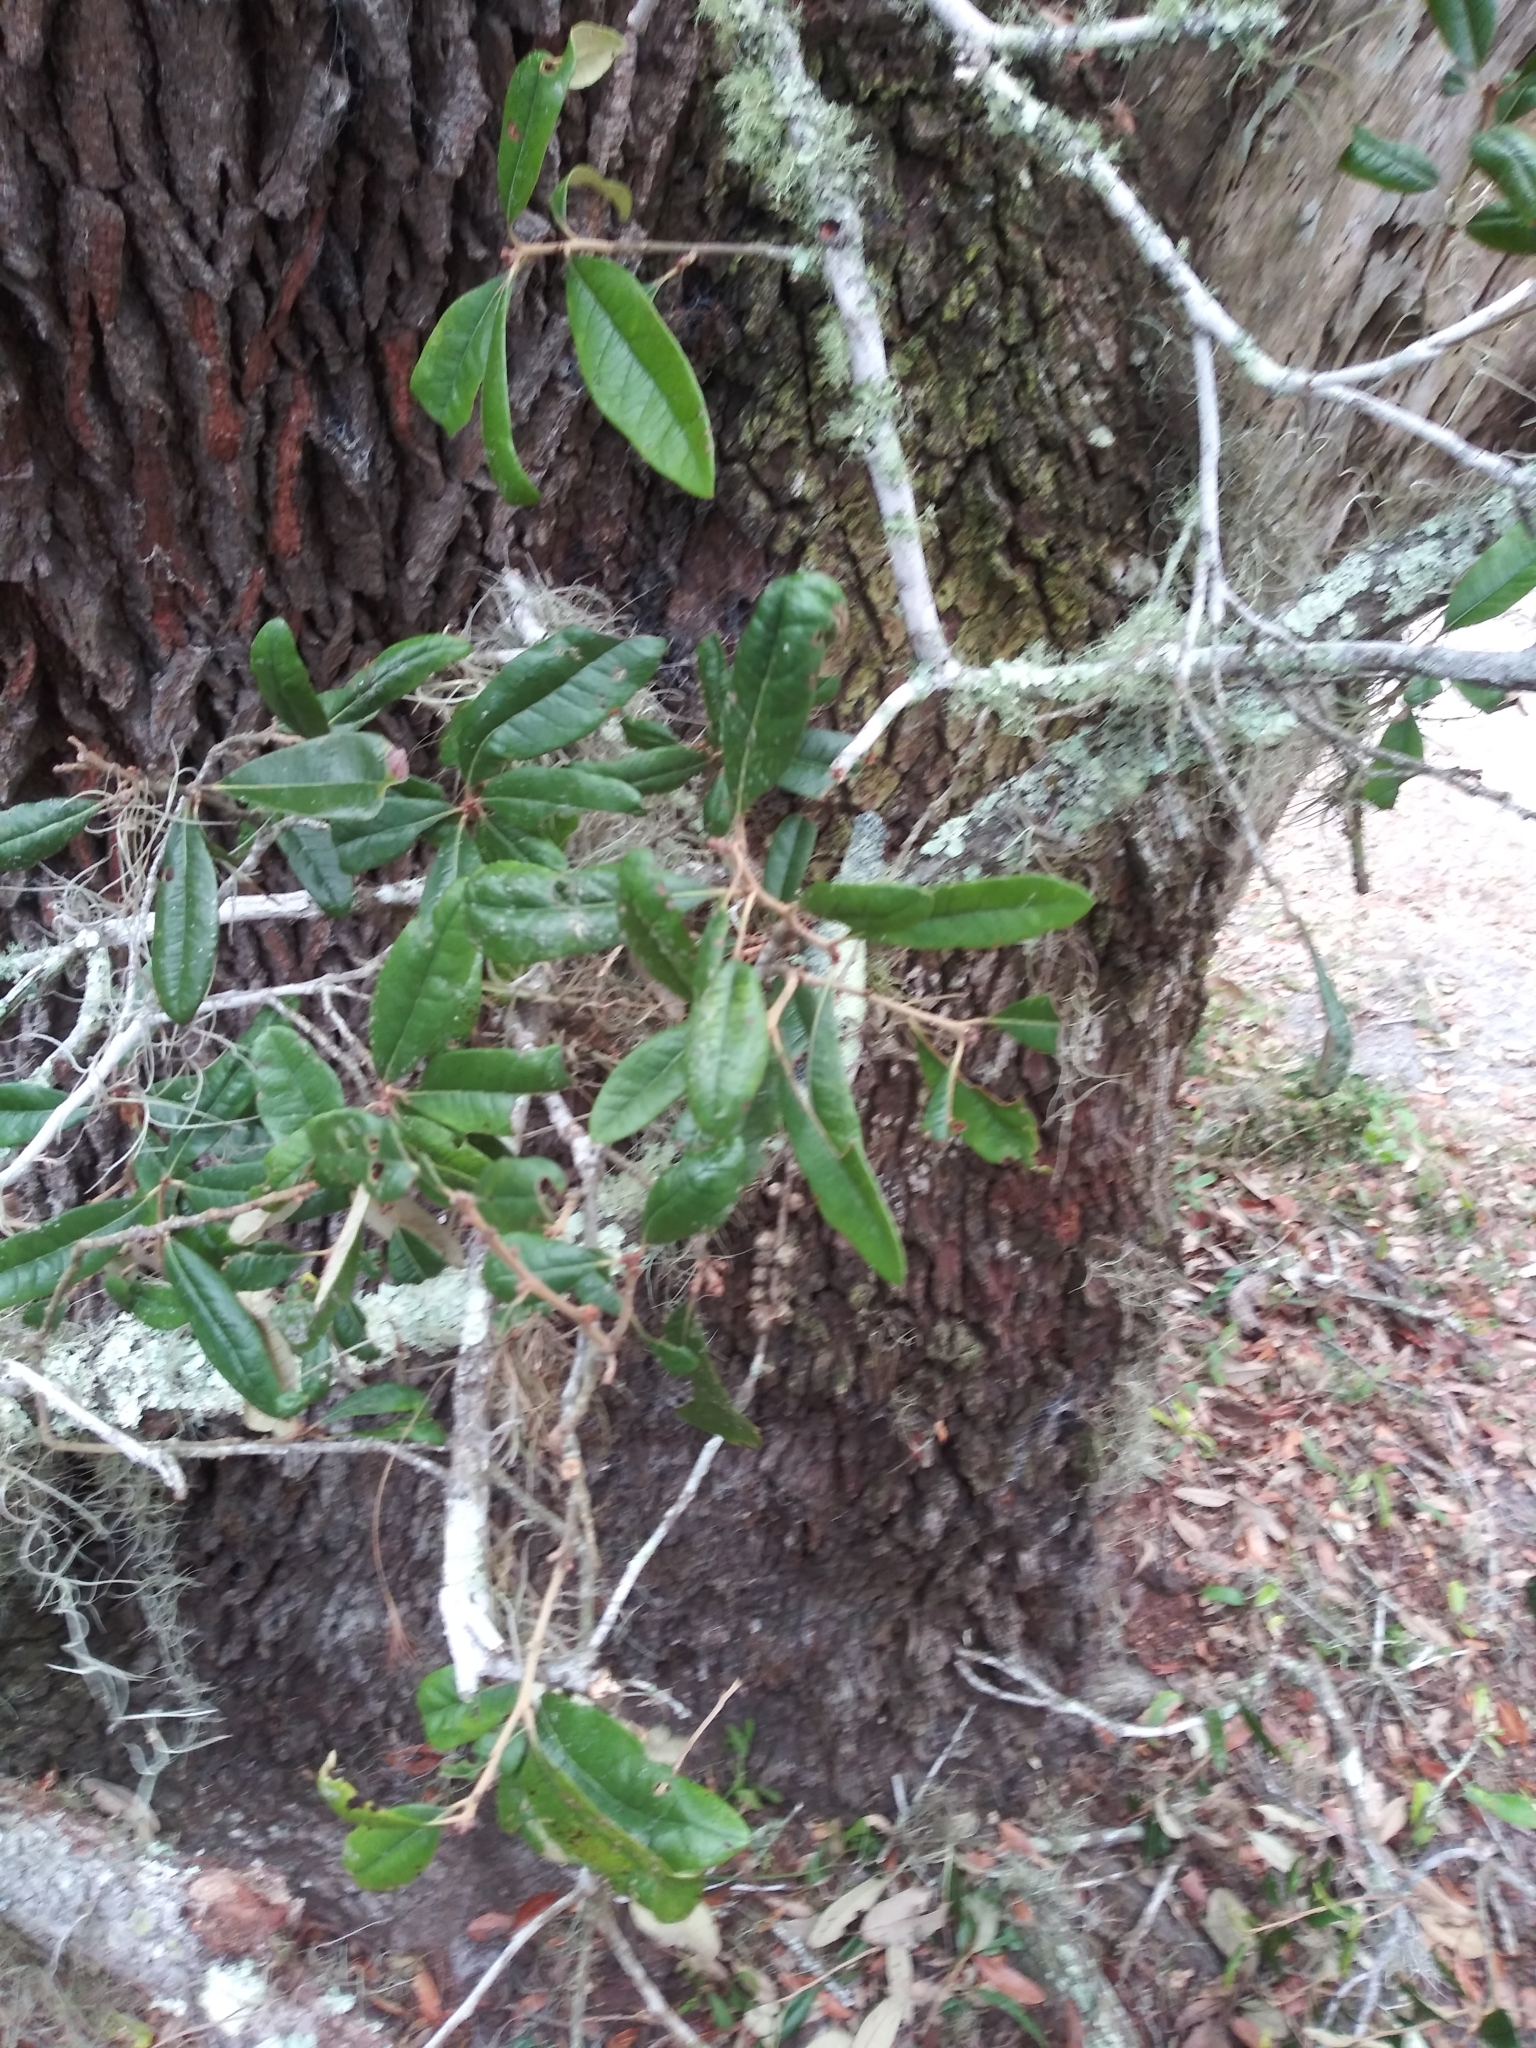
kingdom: Plantae
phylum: Tracheophyta
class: Magnoliopsida
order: Fagales
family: Fagaceae
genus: Quercus
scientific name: Quercus geminata
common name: Sand live oak
